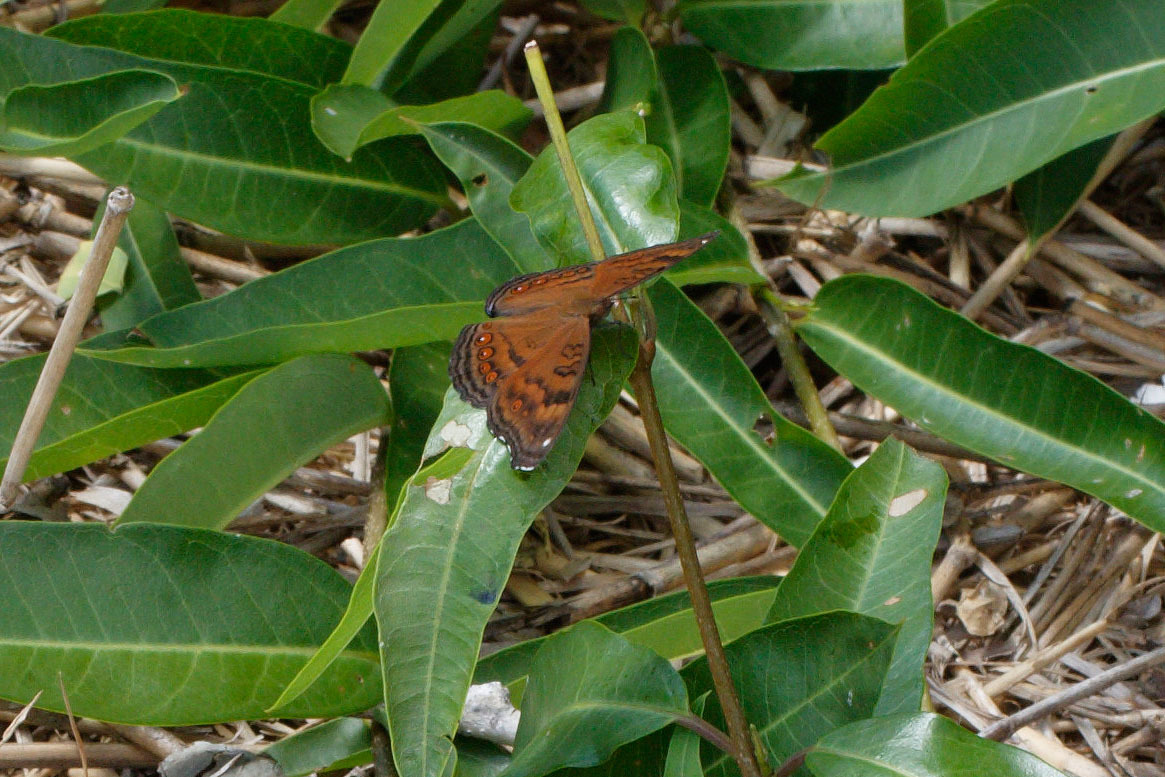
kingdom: Animalia
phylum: Arthropoda
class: Insecta
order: Lepidoptera
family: Nymphalidae
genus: Junonia
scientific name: Junonia hedonia
